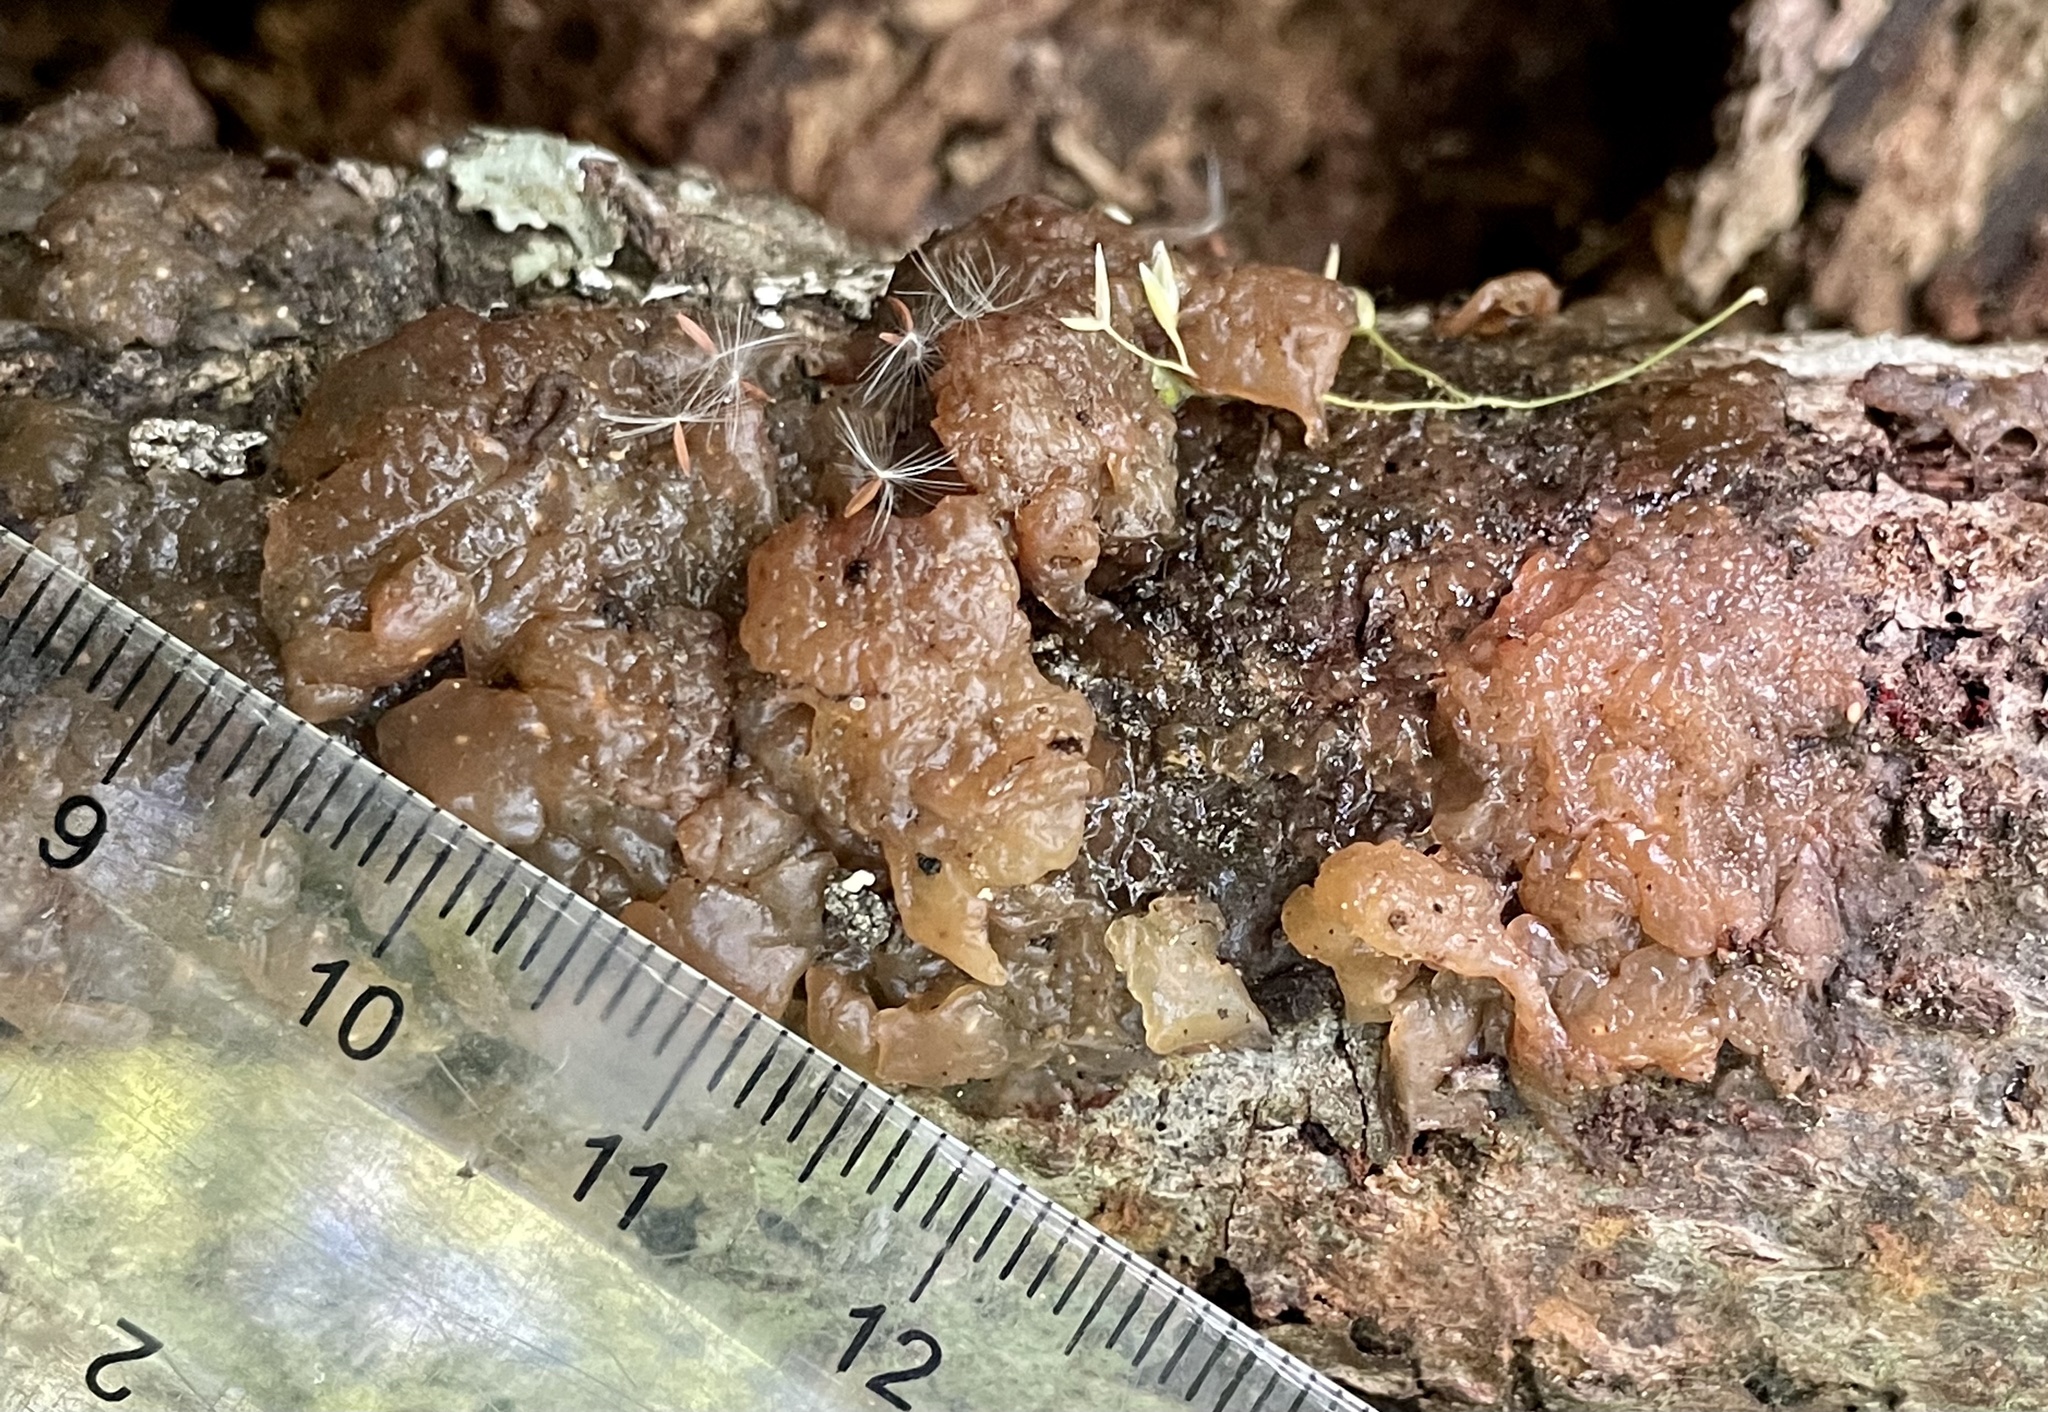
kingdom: Fungi
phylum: Basidiomycota
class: Agaricomycetes
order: Auriculariales
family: Hyaloriaceae
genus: Myxarium
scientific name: Myxarium nucleatum
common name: Crystal brain fungus
